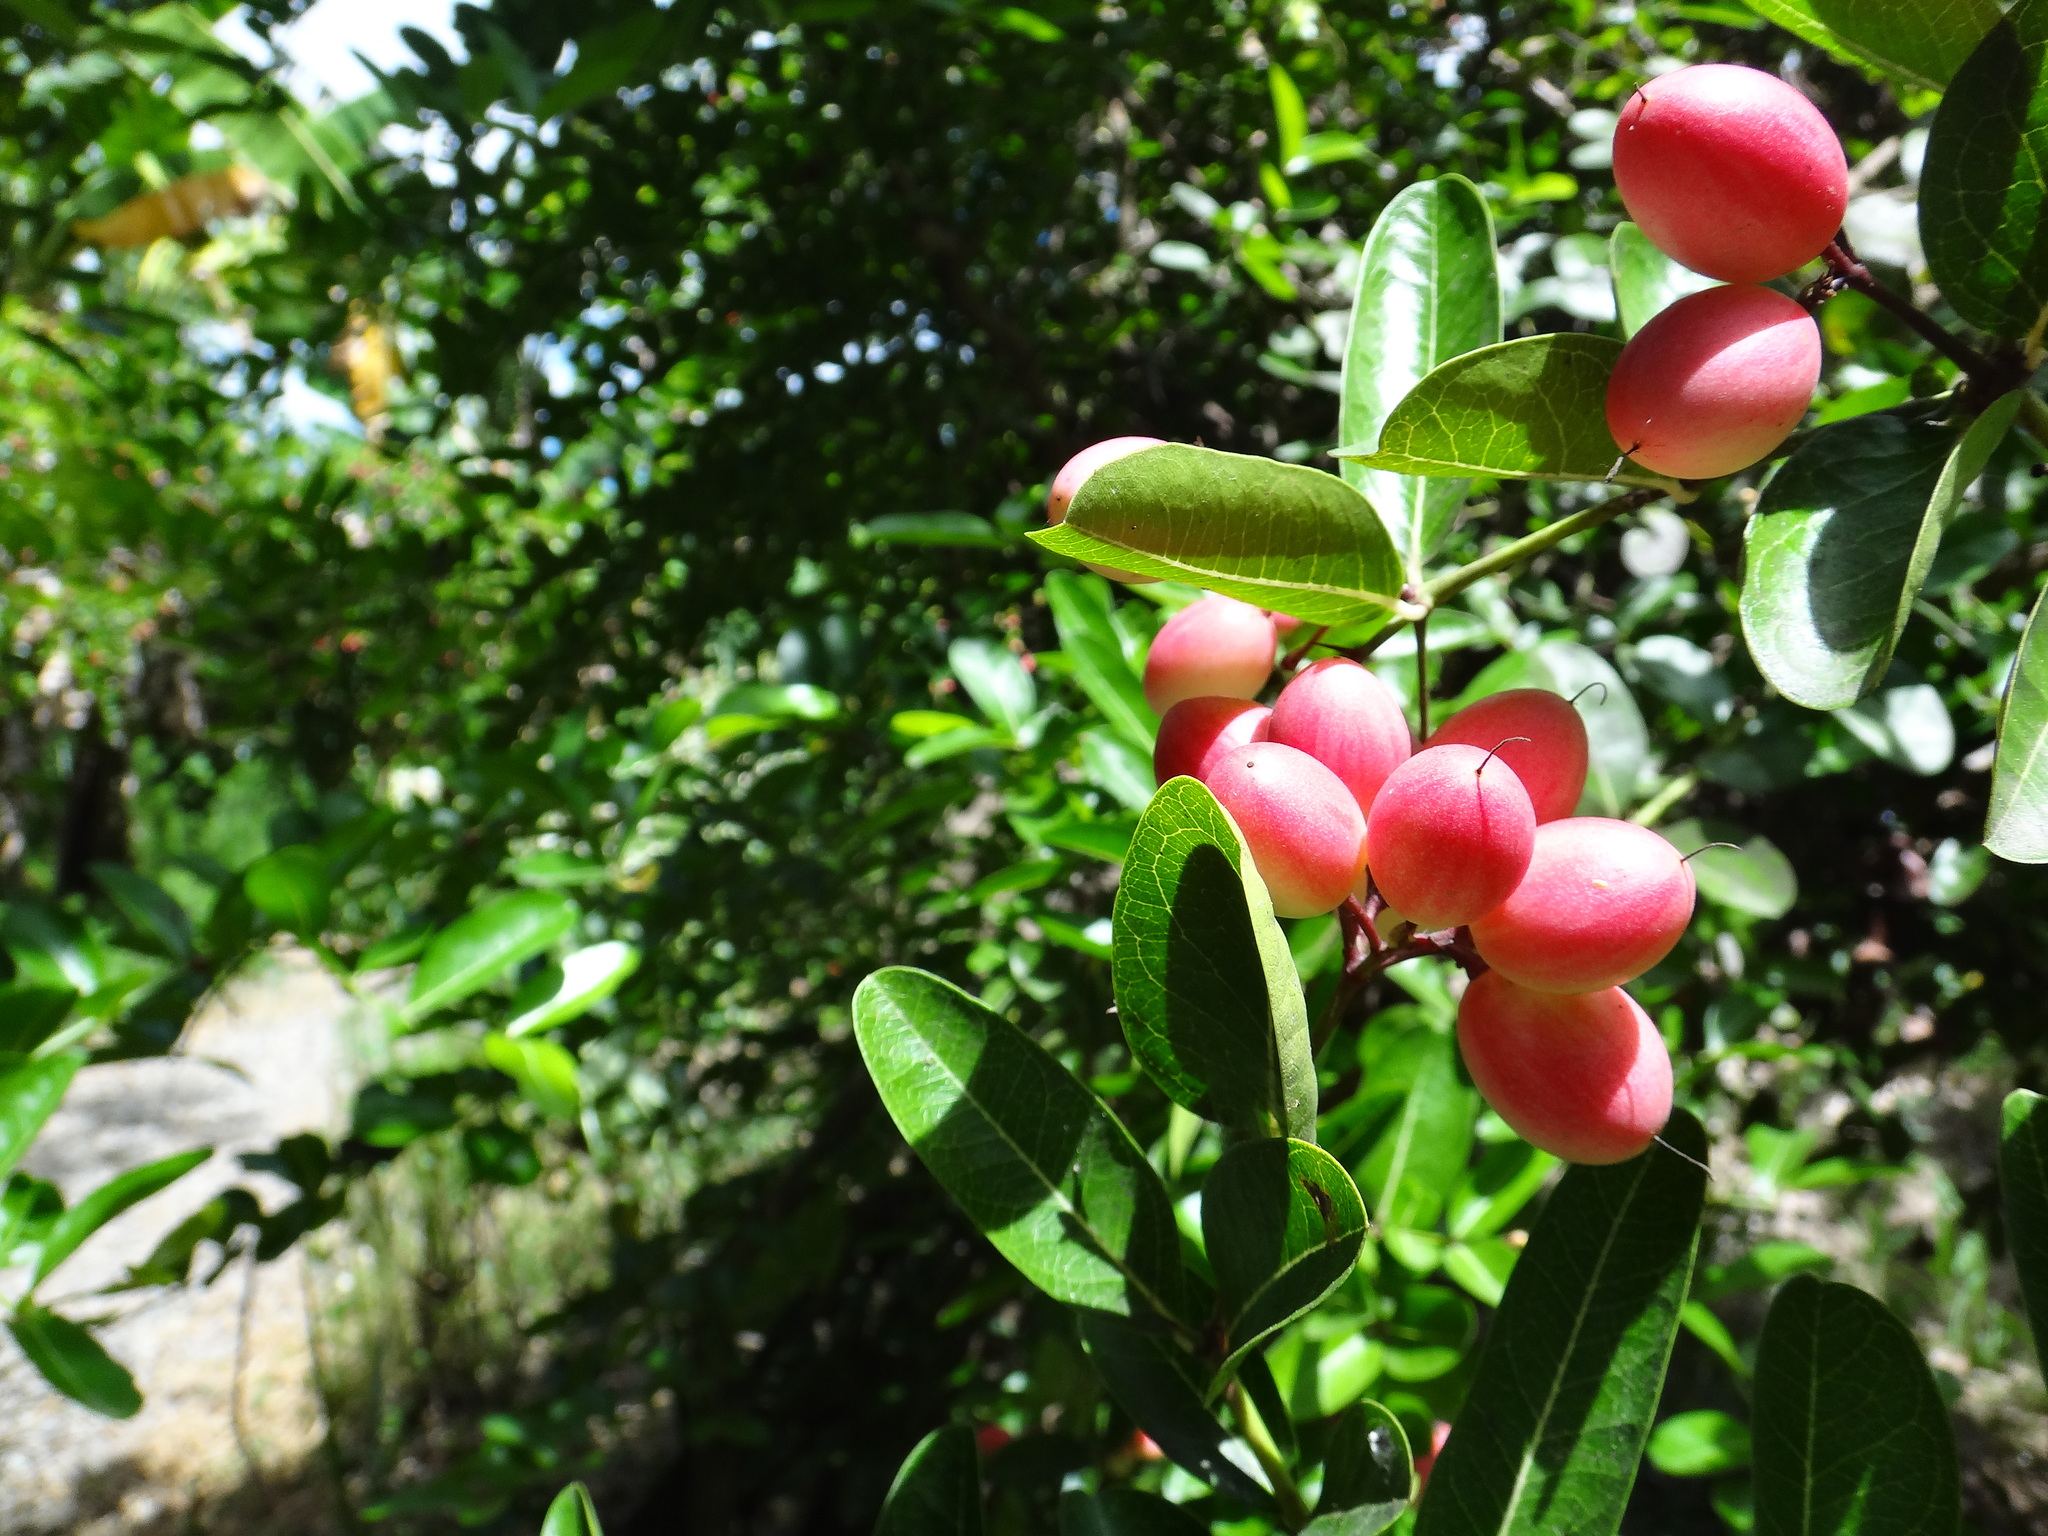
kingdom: Plantae
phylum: Tracheophyta
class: Magnoliopsida
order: Gentianales
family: Apocynaceae
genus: Carissa
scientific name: Carissa carandas
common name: Karanda
